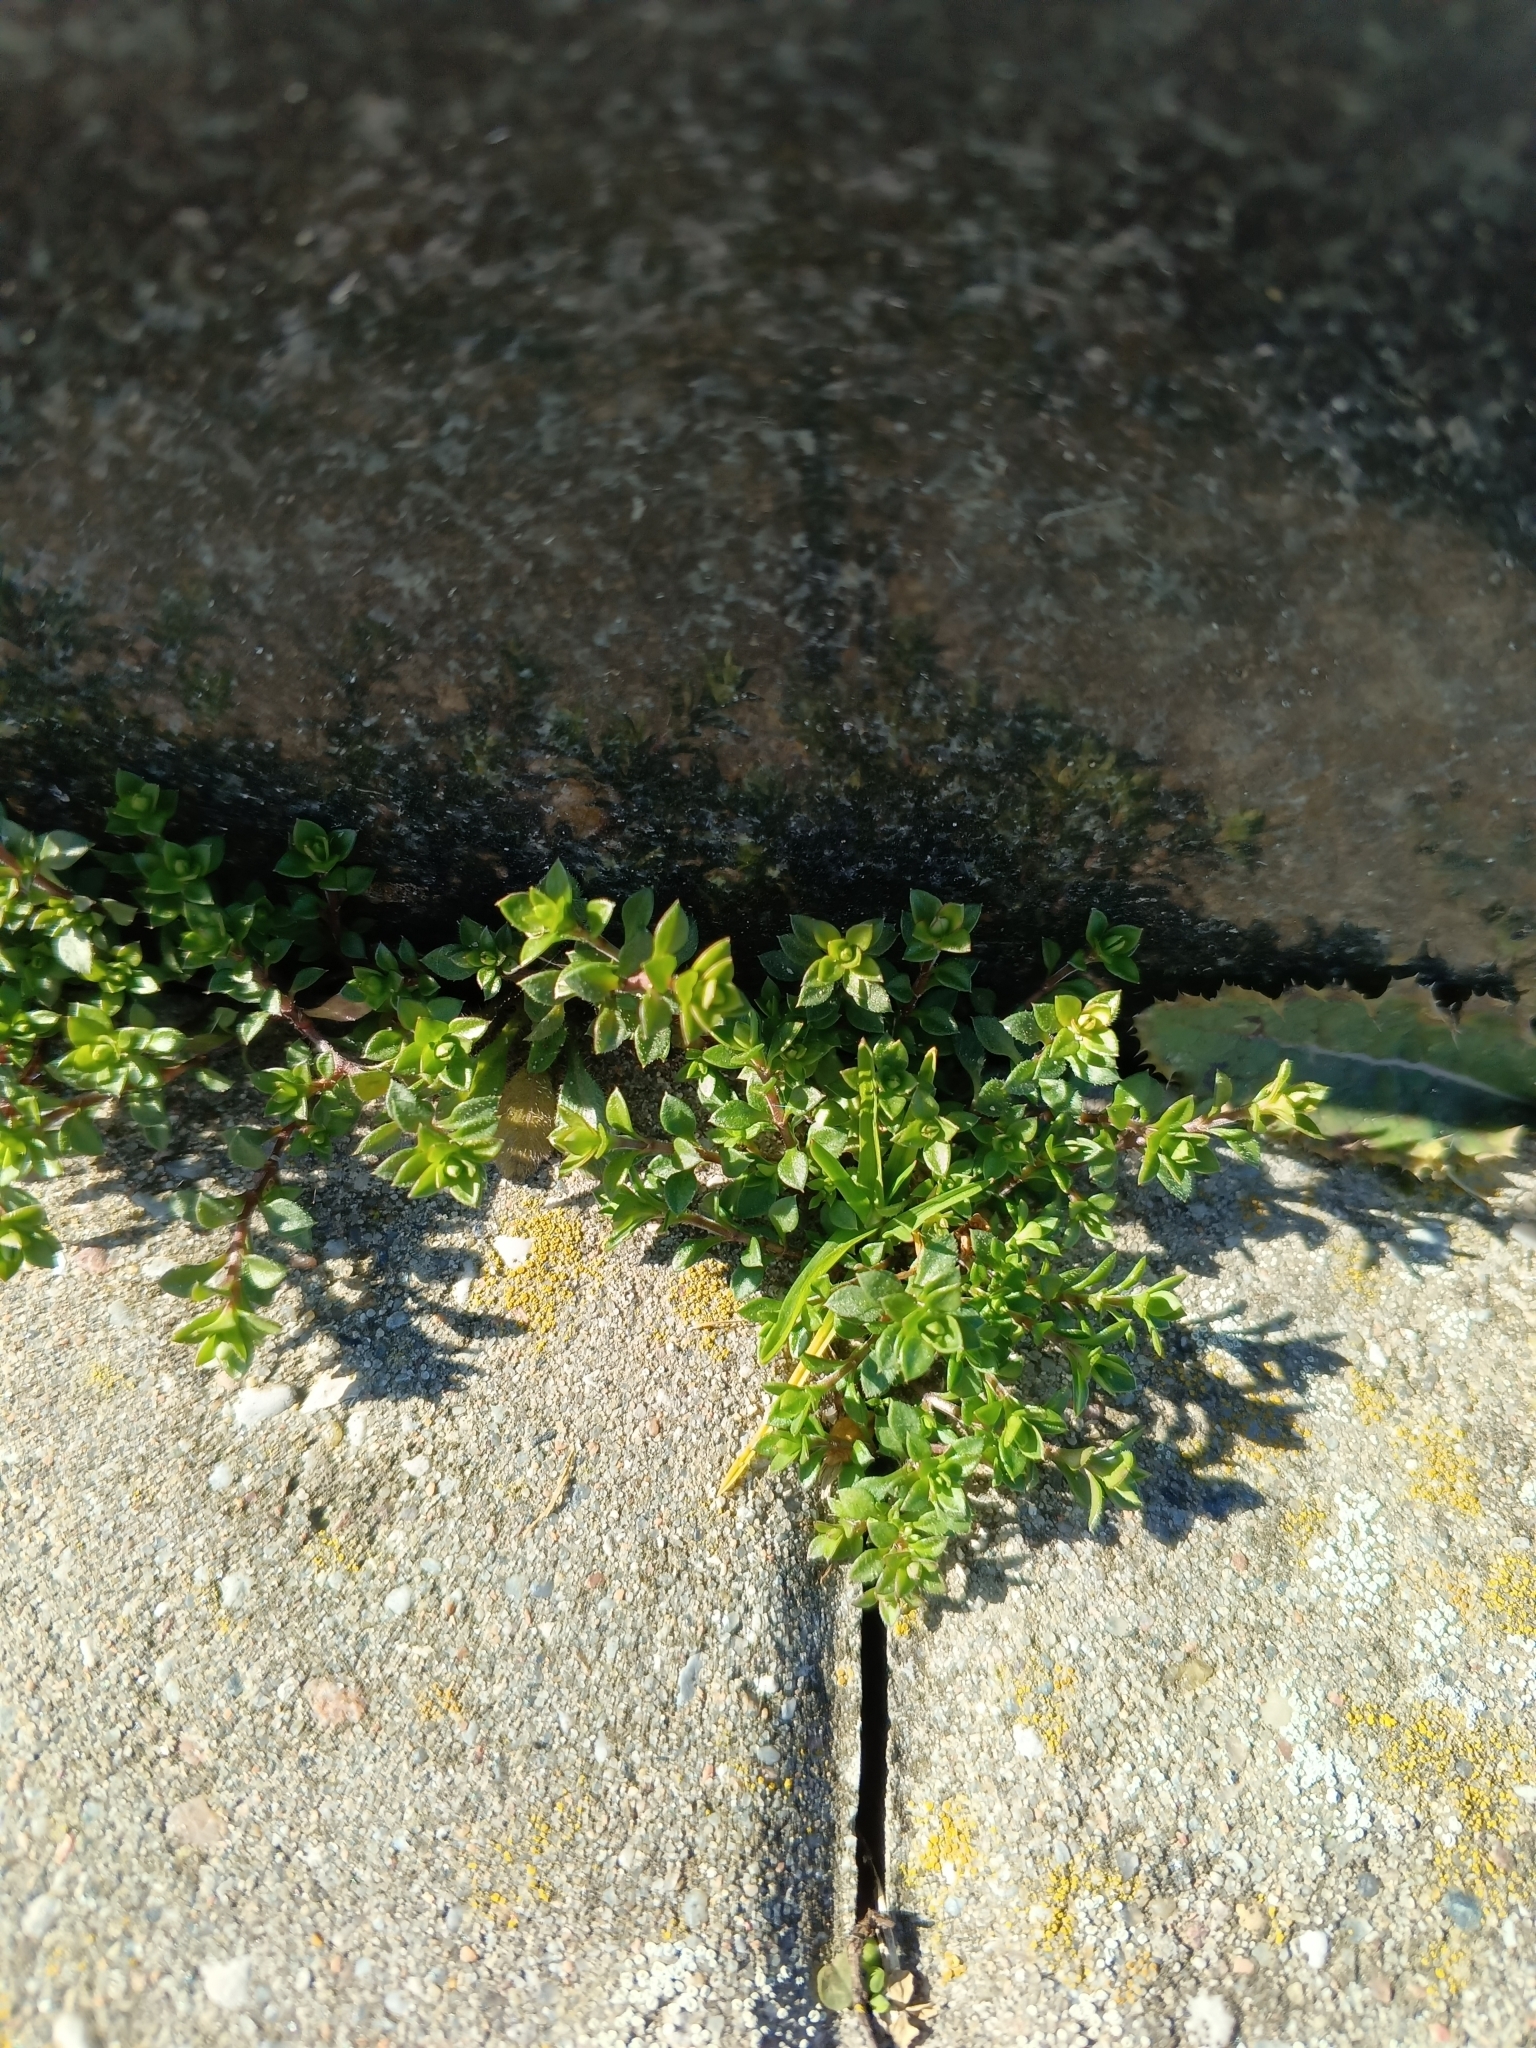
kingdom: Plantae
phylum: Tracheophyta
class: Magnoliopsida
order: Caryophyllales
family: Caryophyllaceae
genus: Arenaria
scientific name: Arenaria serpyllifolia
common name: Thyme-leaved sandwort
